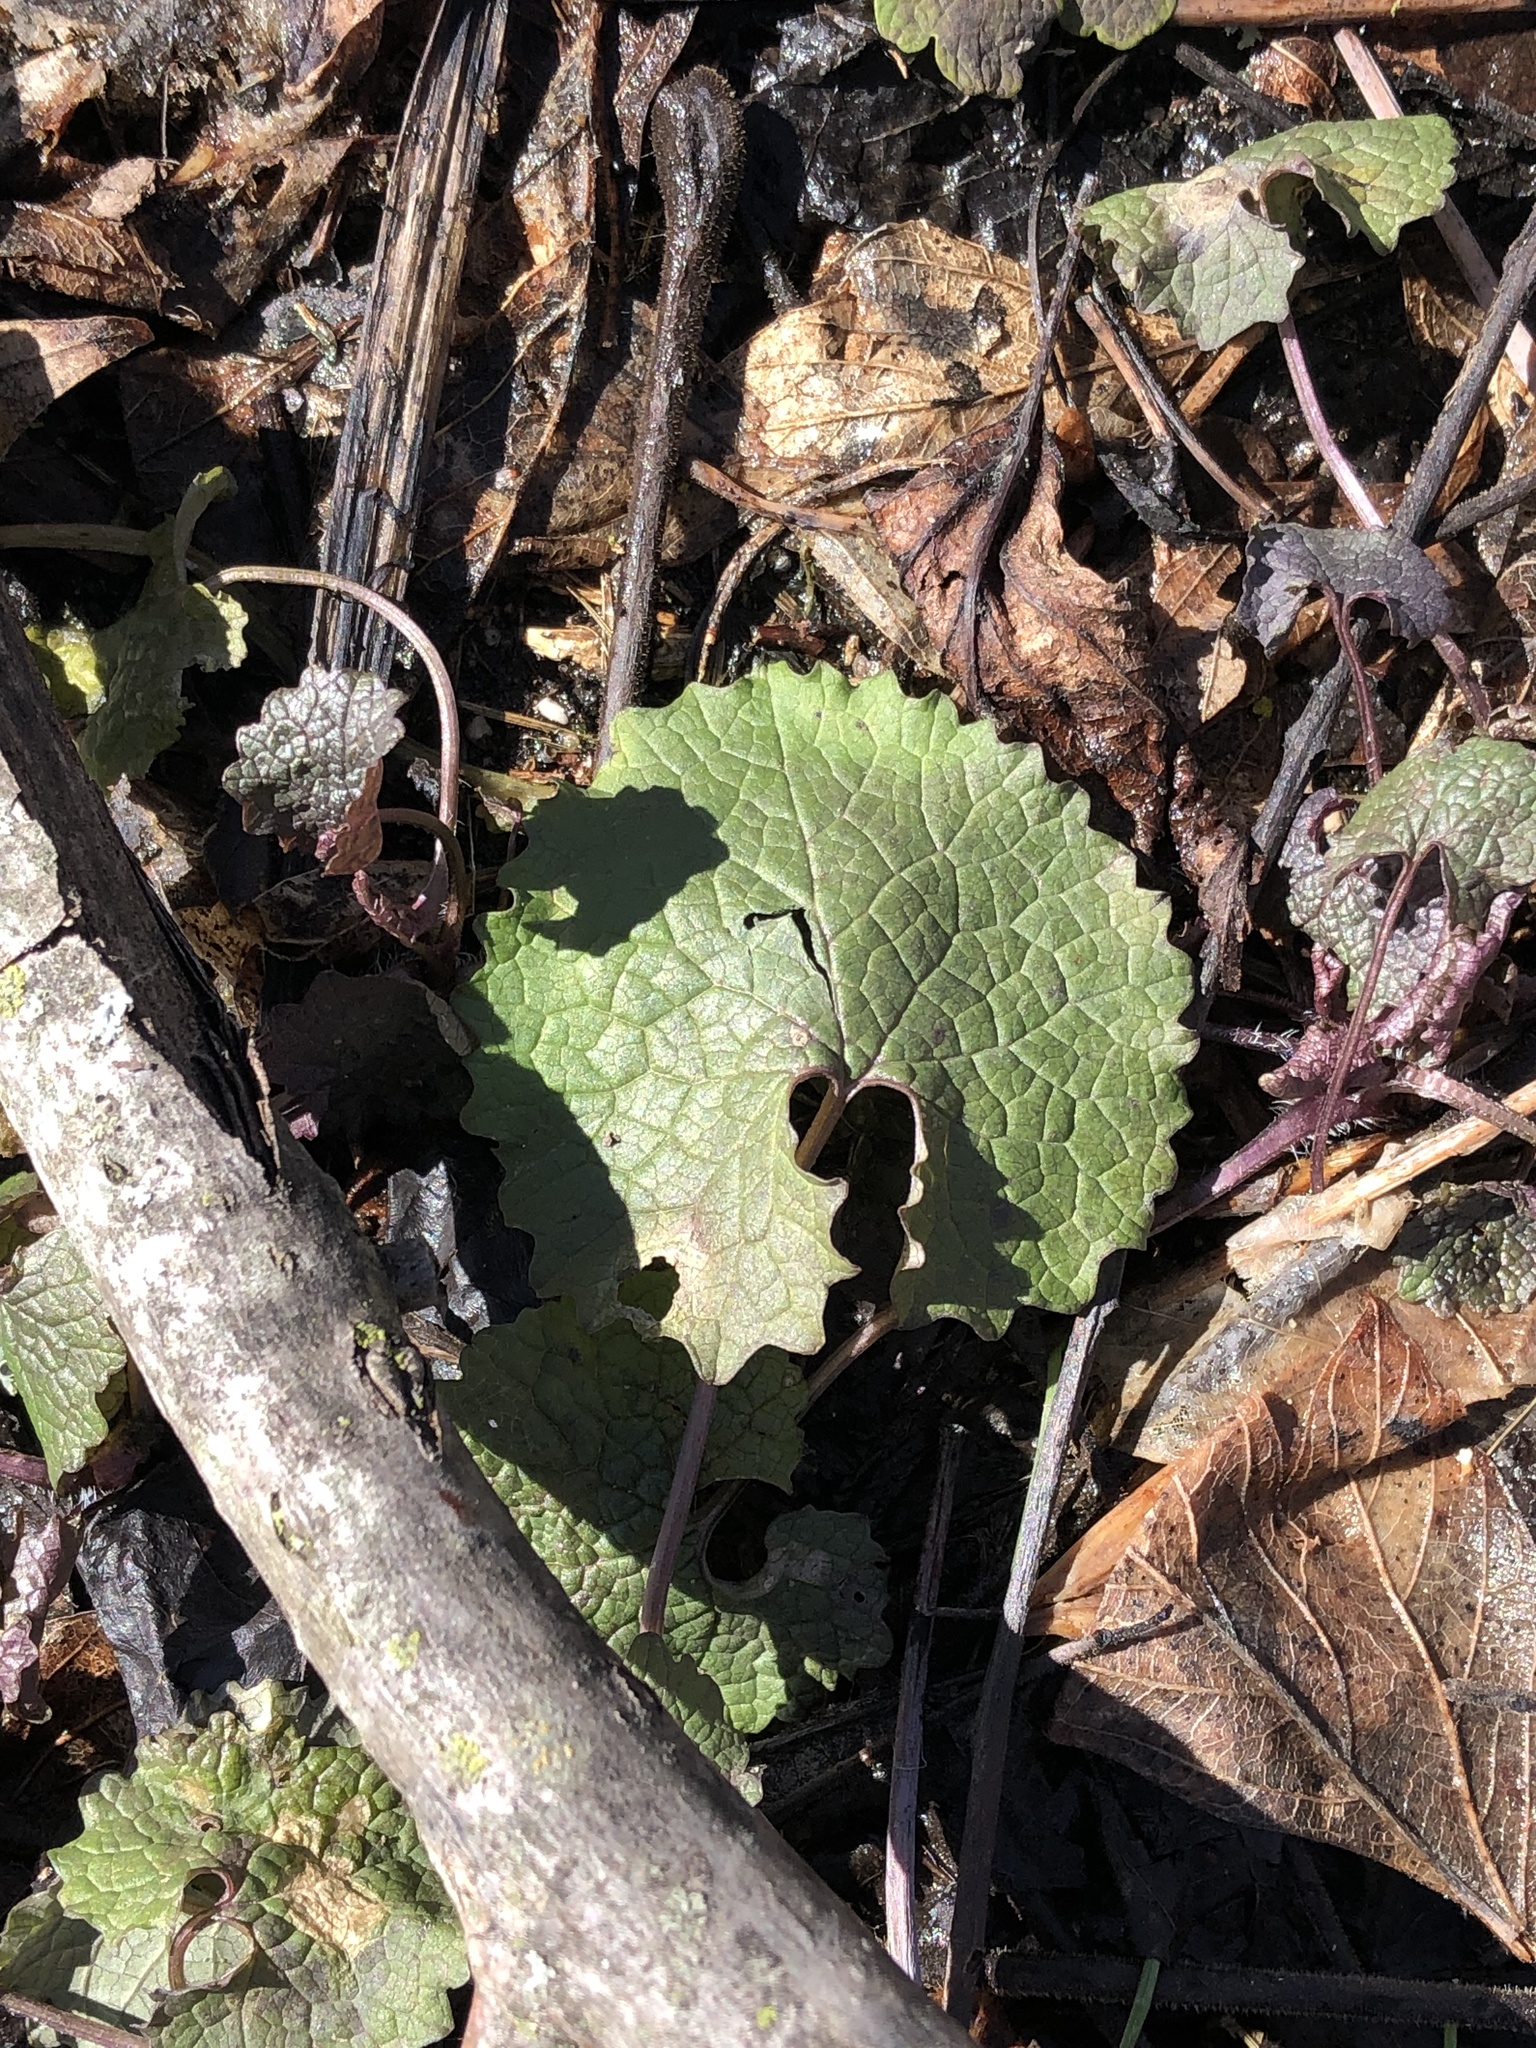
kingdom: Plantae
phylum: Tracheophyta
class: Magnoliopsida
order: Brassicales
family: Brassicaceae
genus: Alliaria
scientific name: Alliaria petiolata
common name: Garlic mustard
